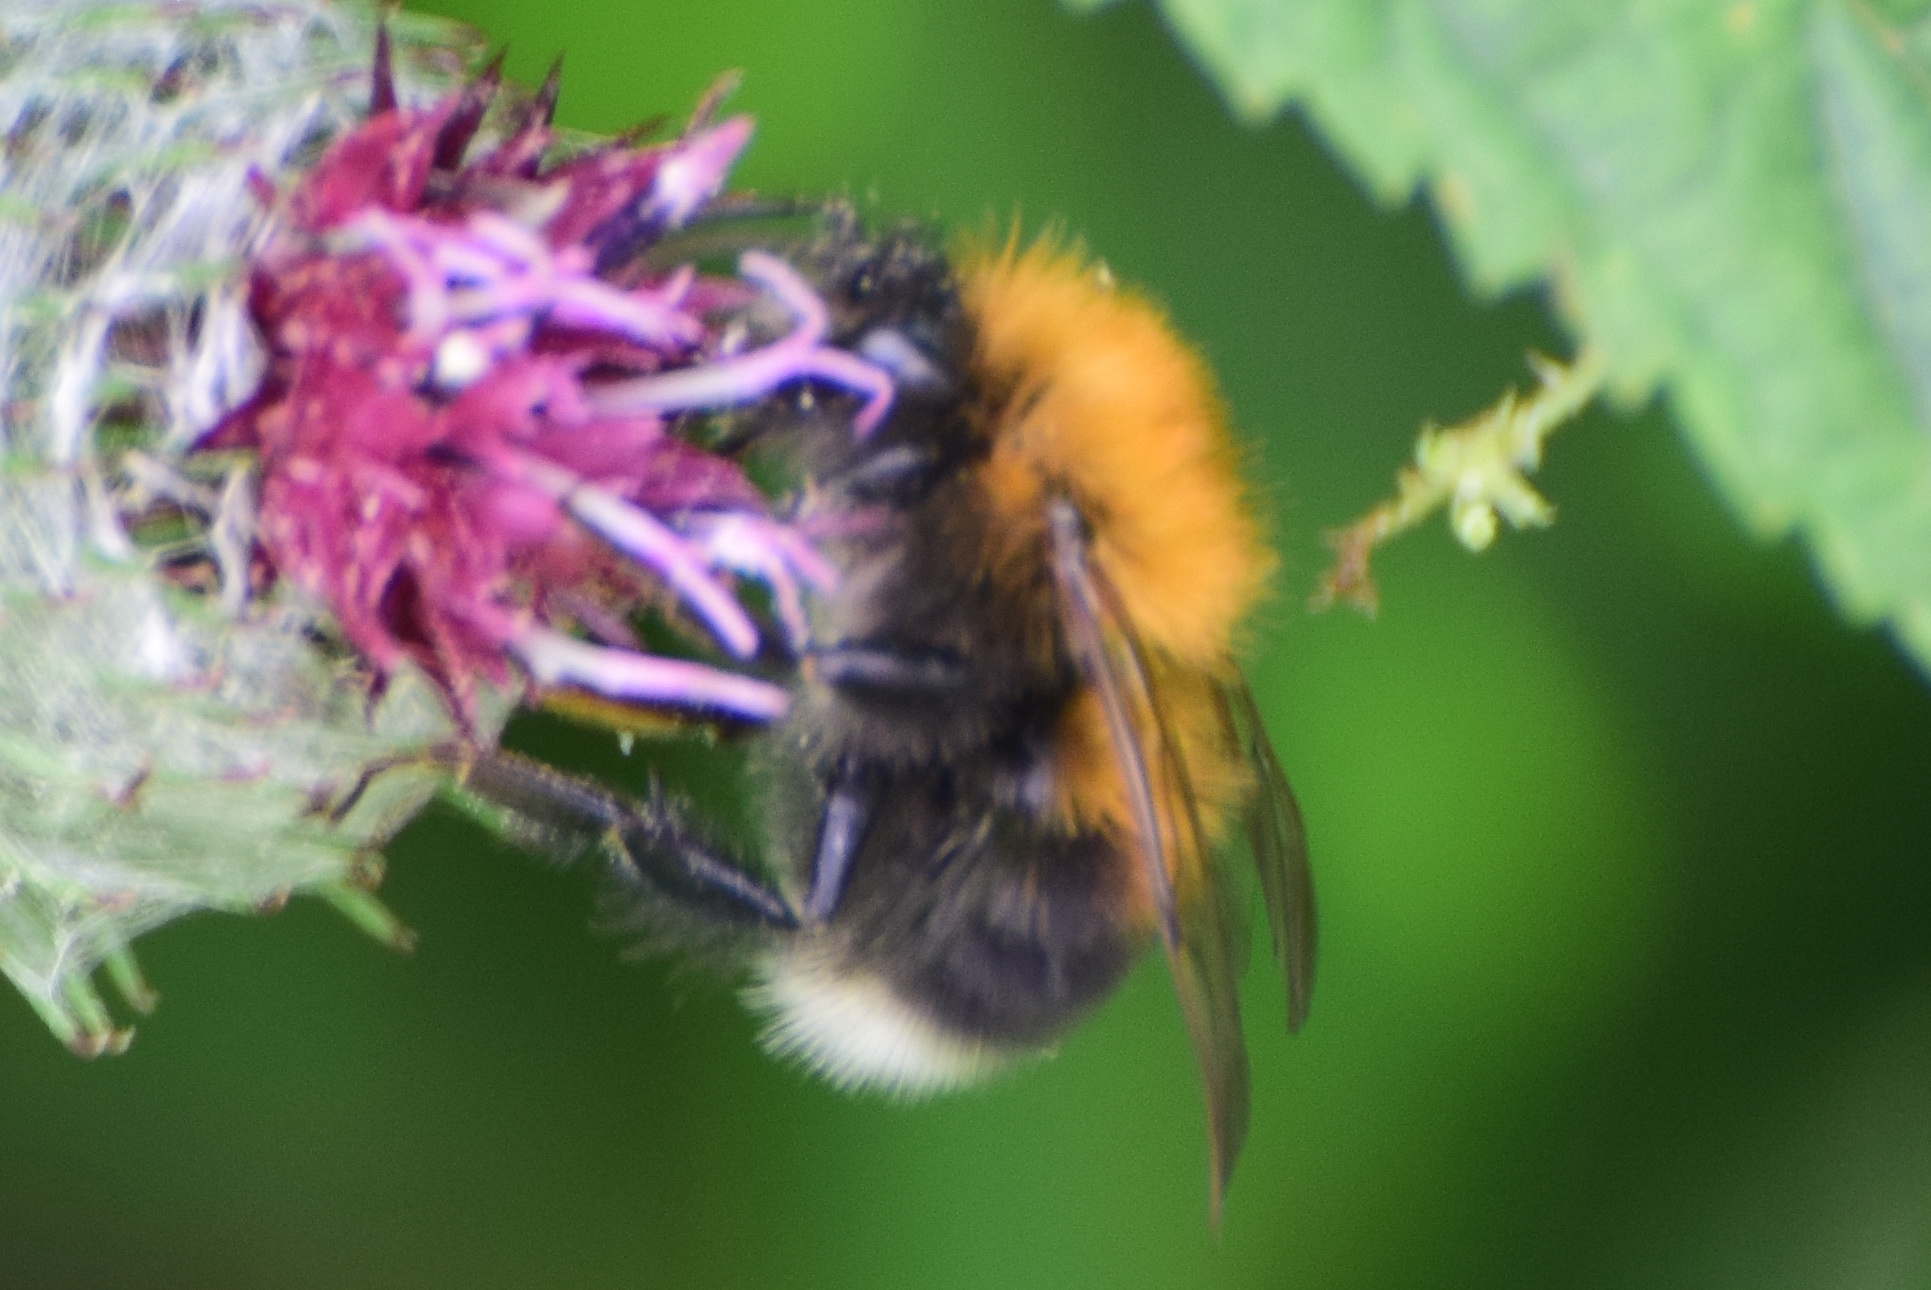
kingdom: Animalia
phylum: Arthropoda
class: Insecta
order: Hymenoptera
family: Apidae
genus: Bombus
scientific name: Bombus hypnorum
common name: New garden bumblebee
